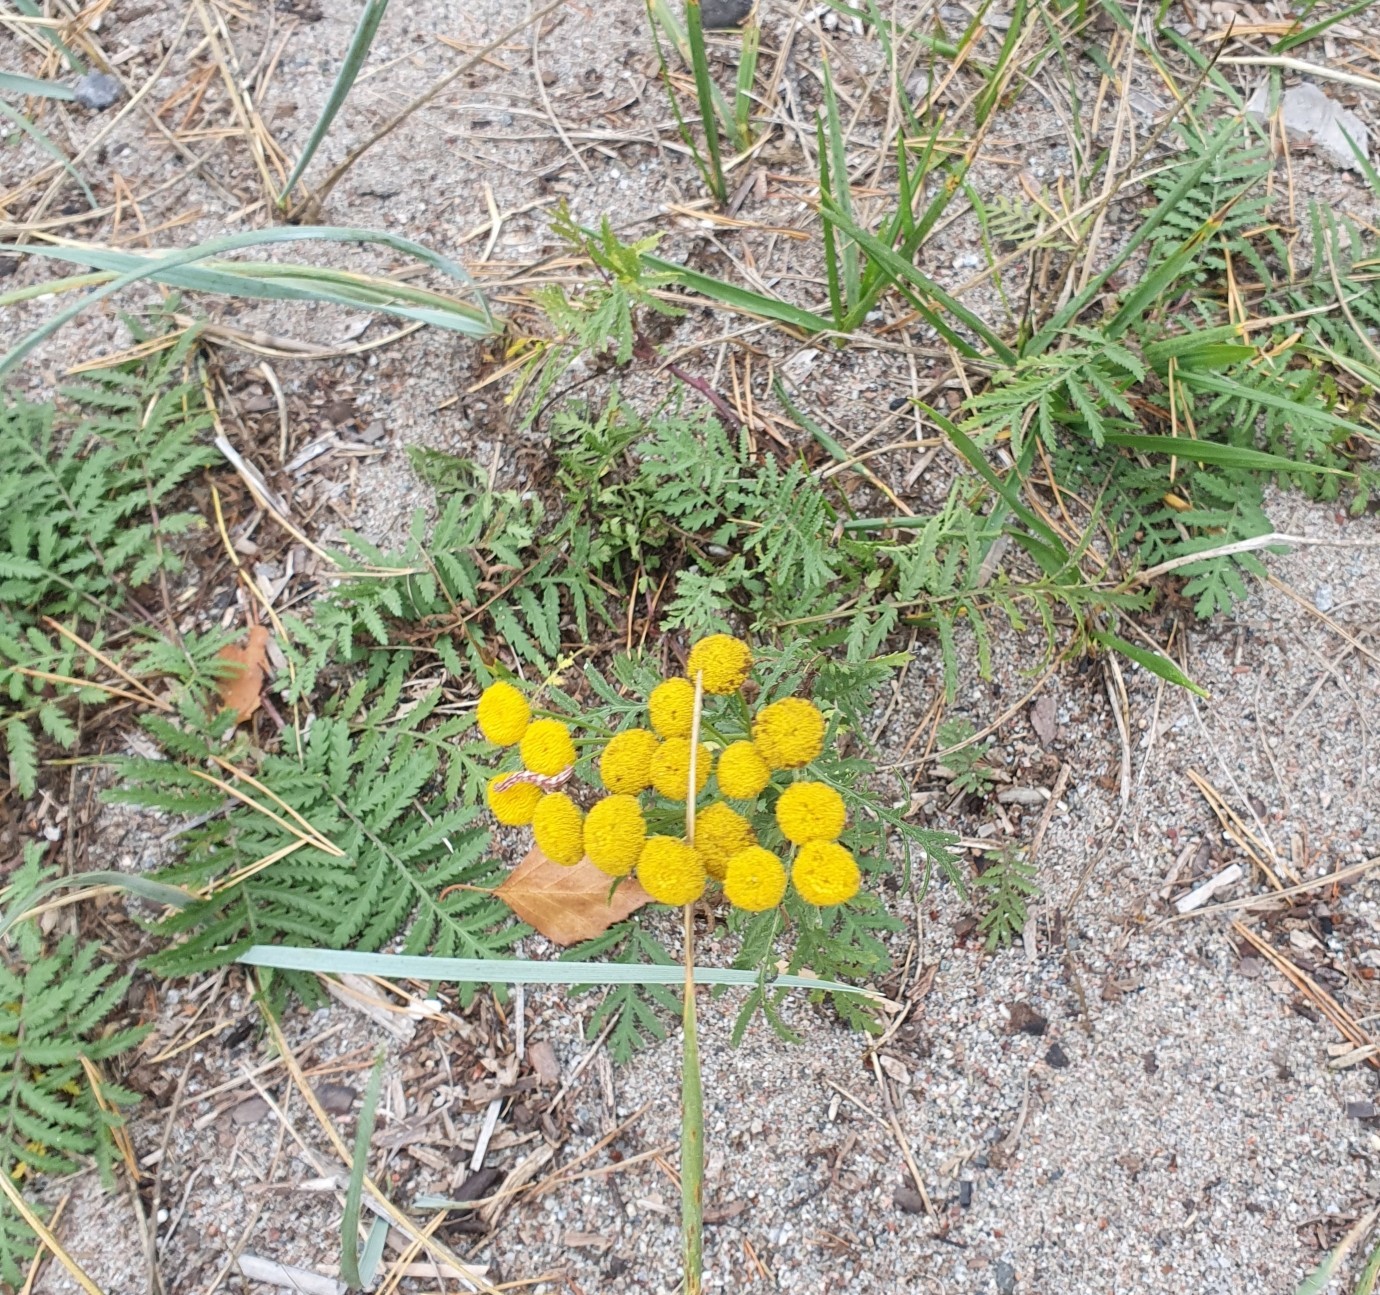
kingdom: Plantae
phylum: Tracheophyta
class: Magnoliopsida
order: Asterales
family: Asteraceae
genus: Tanacetum
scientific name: Tanacetum vulgare
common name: Common tansy
